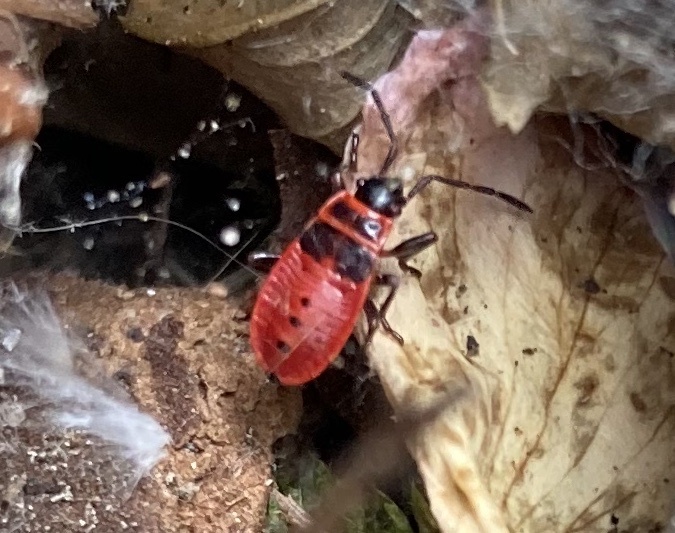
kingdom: Animalia
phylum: Arthropoda
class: Insecta
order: Hemiptera
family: Pyrrhocoridae
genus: Pyrrhocoris
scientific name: Pyrrhocoris apterus
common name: Firebug
